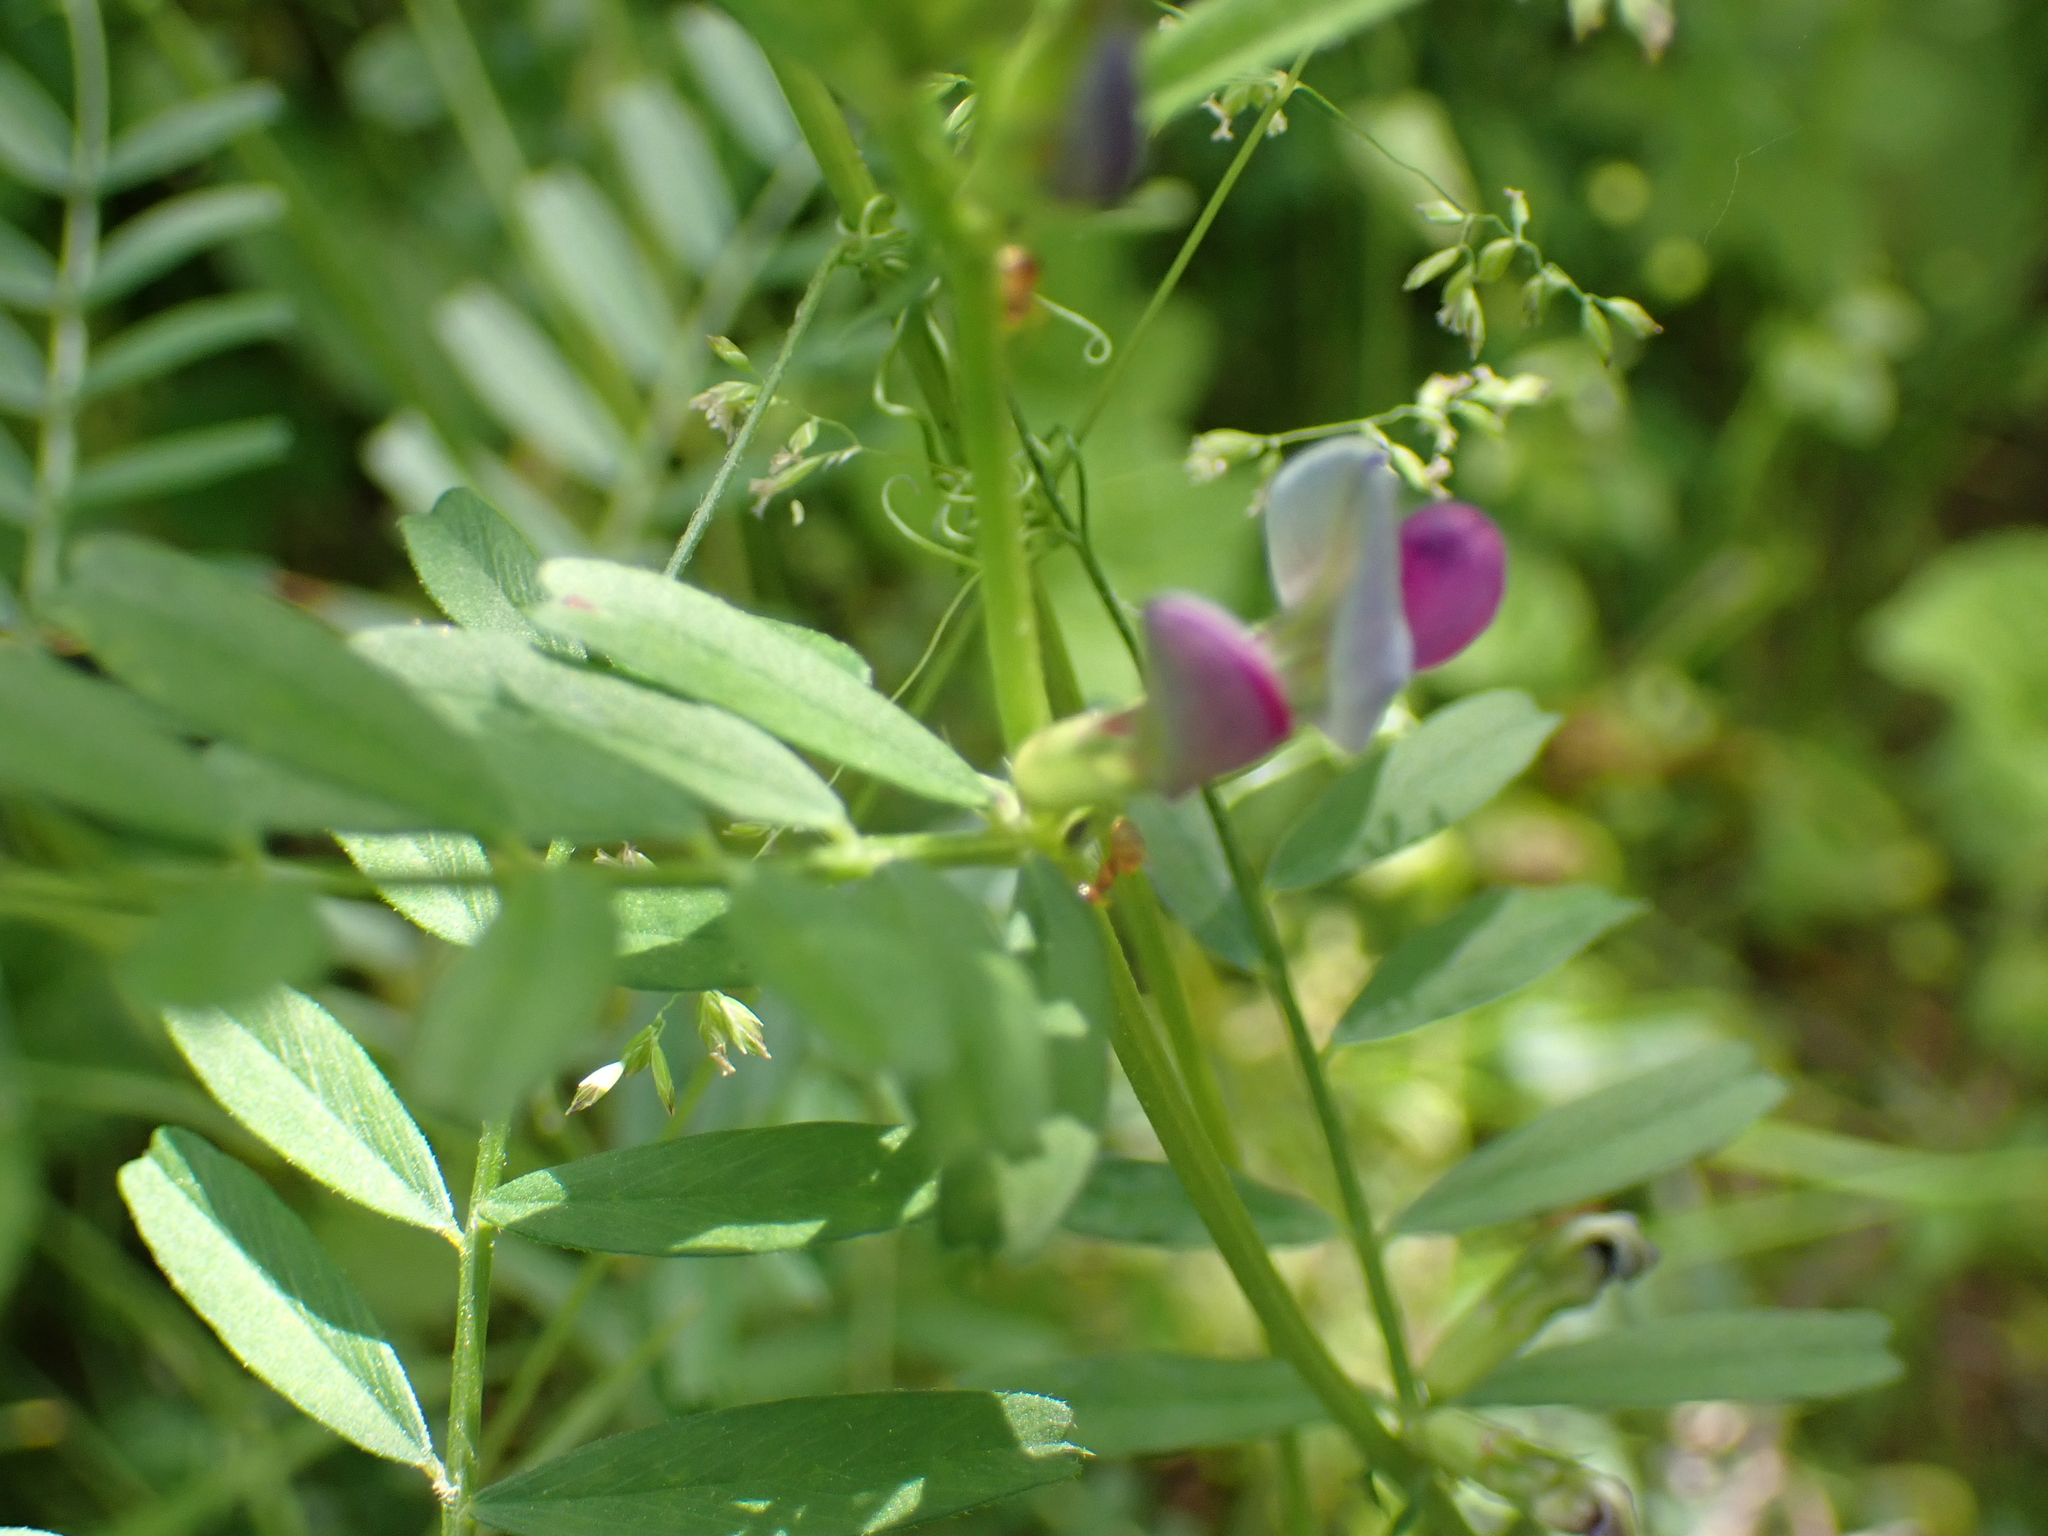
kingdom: Plantae
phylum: Tracheophyta
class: Magnoliopsida
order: Fabales
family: Fabaceae
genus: Vicia
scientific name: Vicia sativa
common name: Garden vetch
